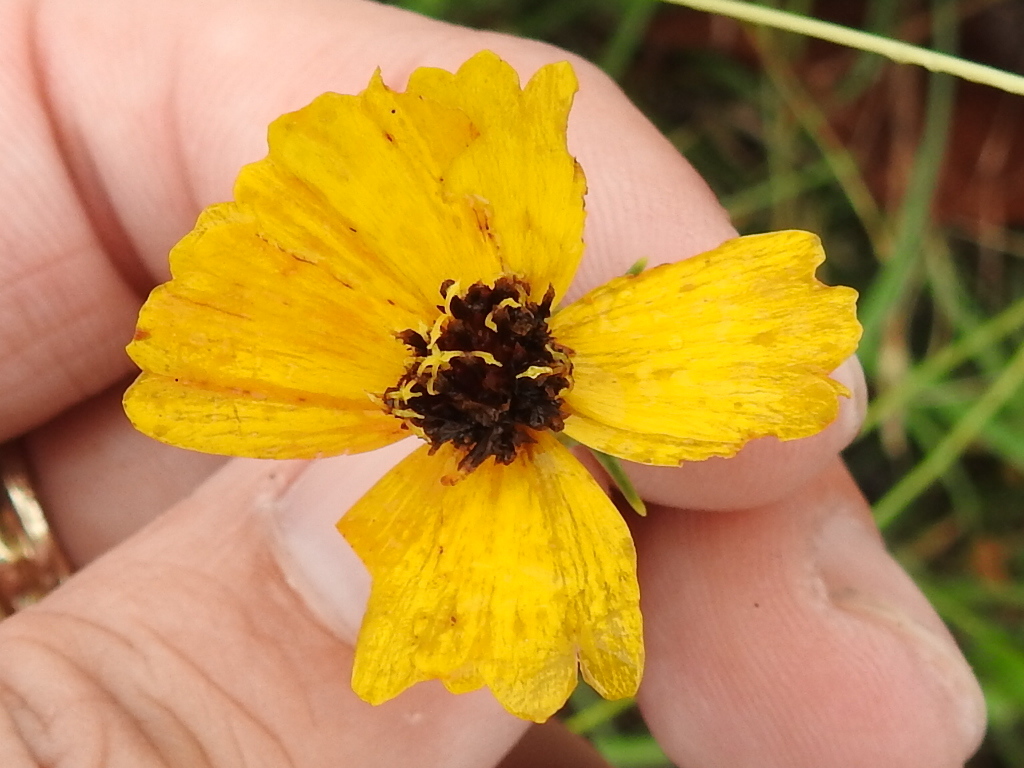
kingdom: Plantae
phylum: Tracheophyta
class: Magnoliopsida
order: Asterales
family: Asteraceae
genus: Thelesperma
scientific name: Thelesperma filifolium
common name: Stiff greenthread
